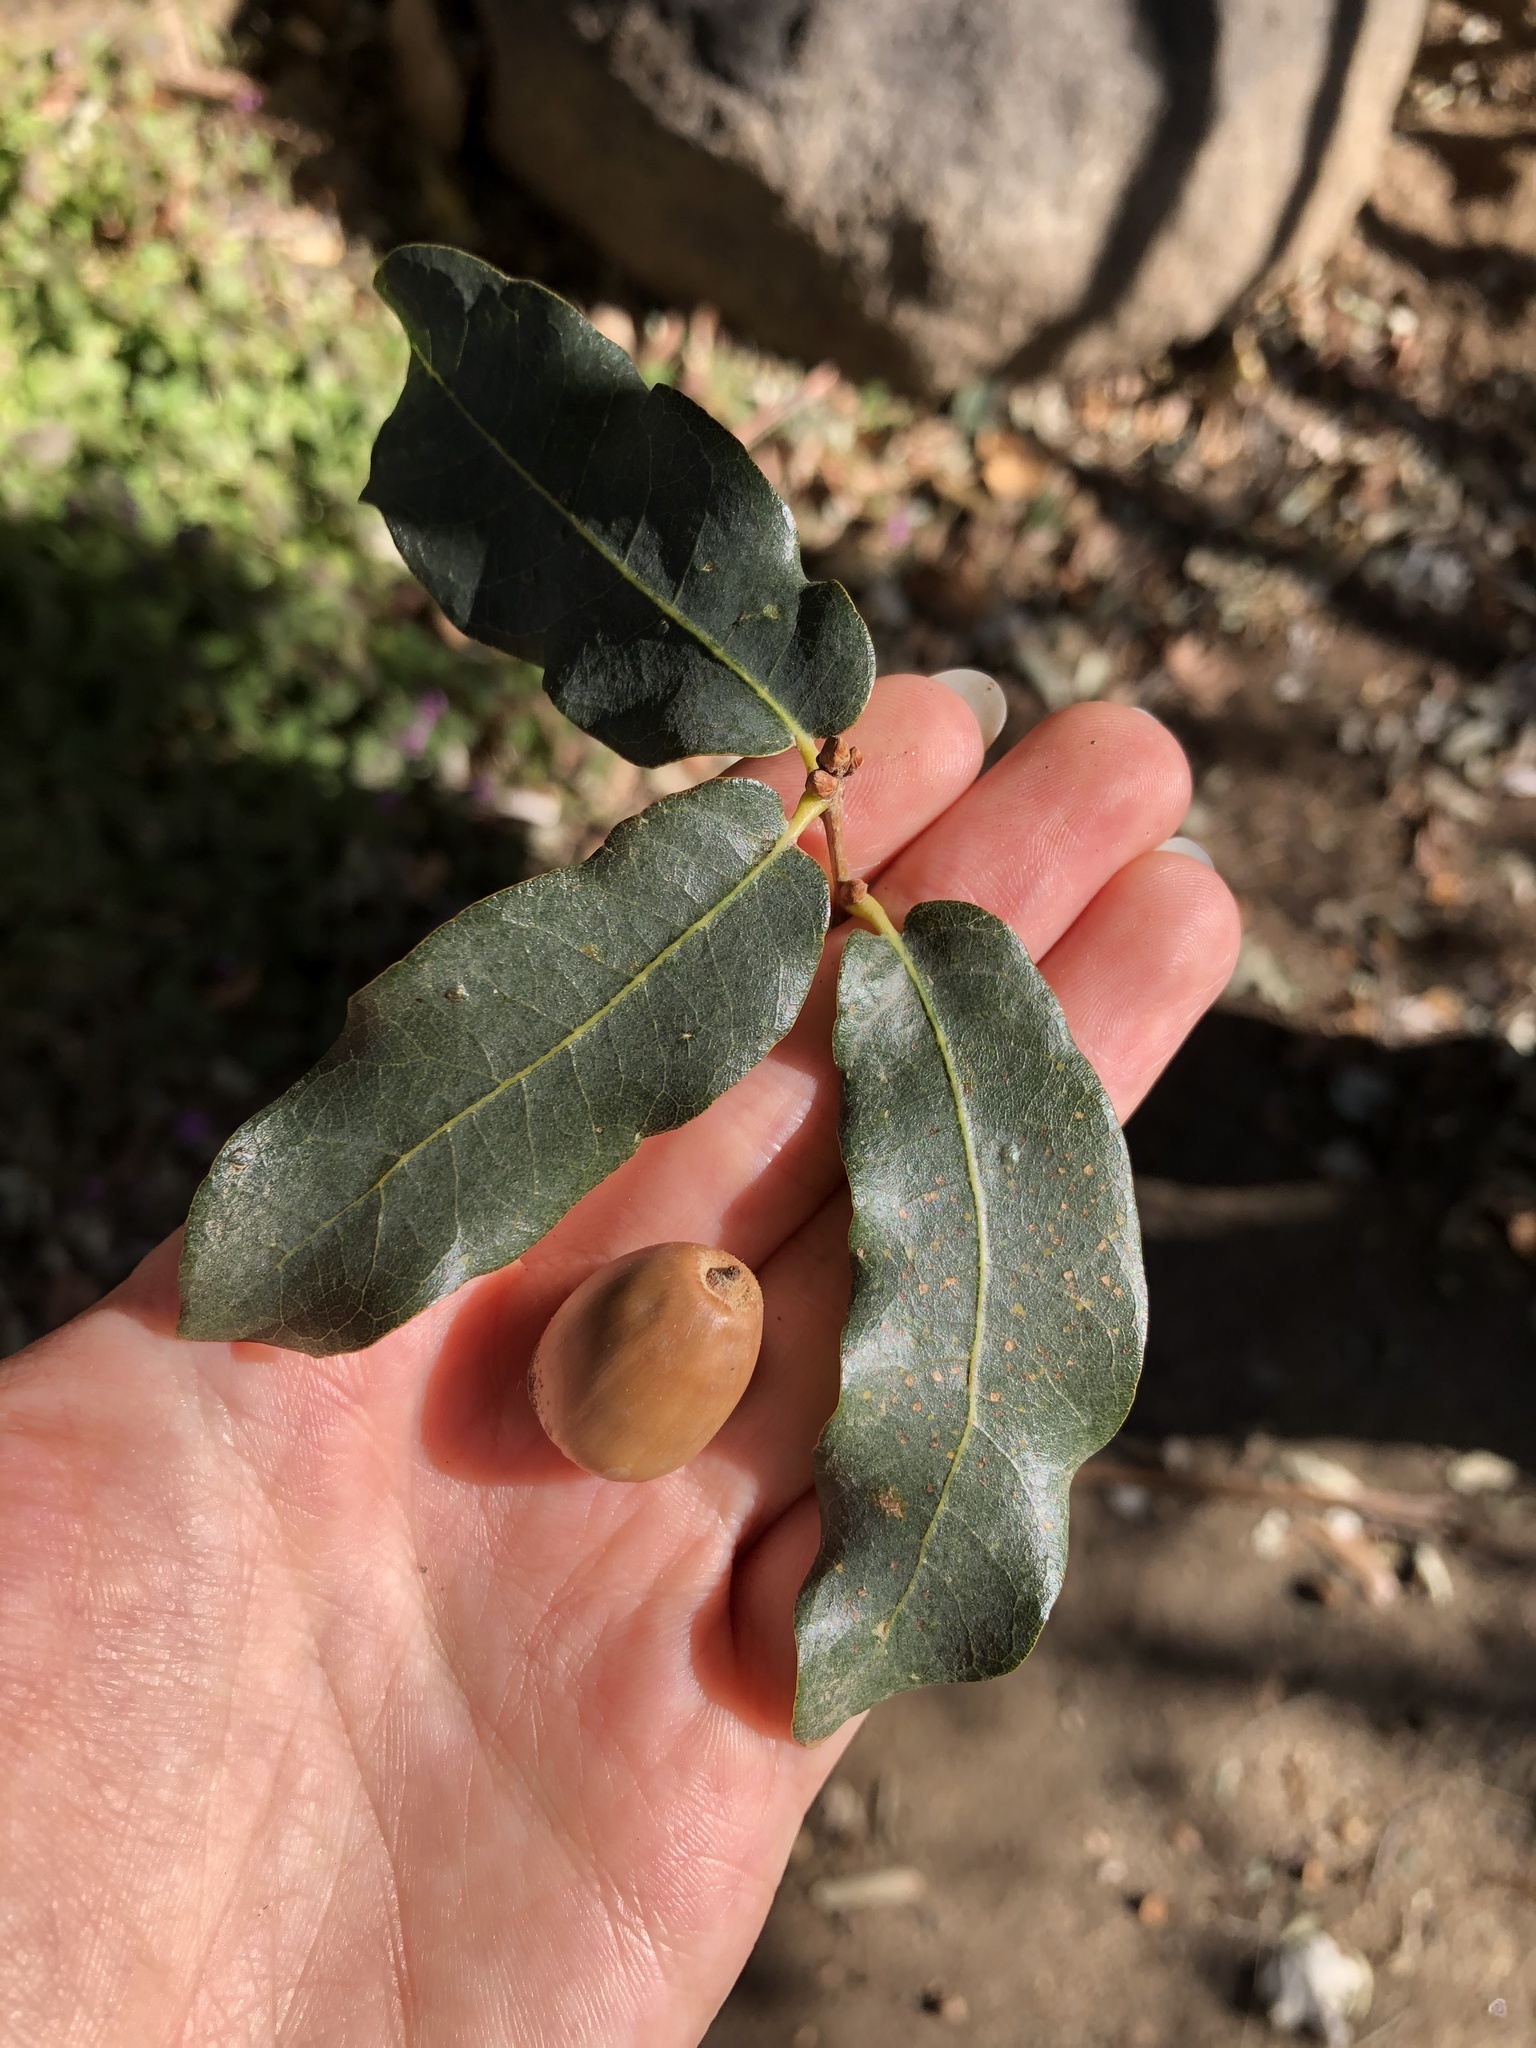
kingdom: Plantae
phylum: Tracheophyta
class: Magnoliopsida
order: Fagales
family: Fagaceae
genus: Quercus
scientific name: Quercus engelmannii
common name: Engelmann oak
